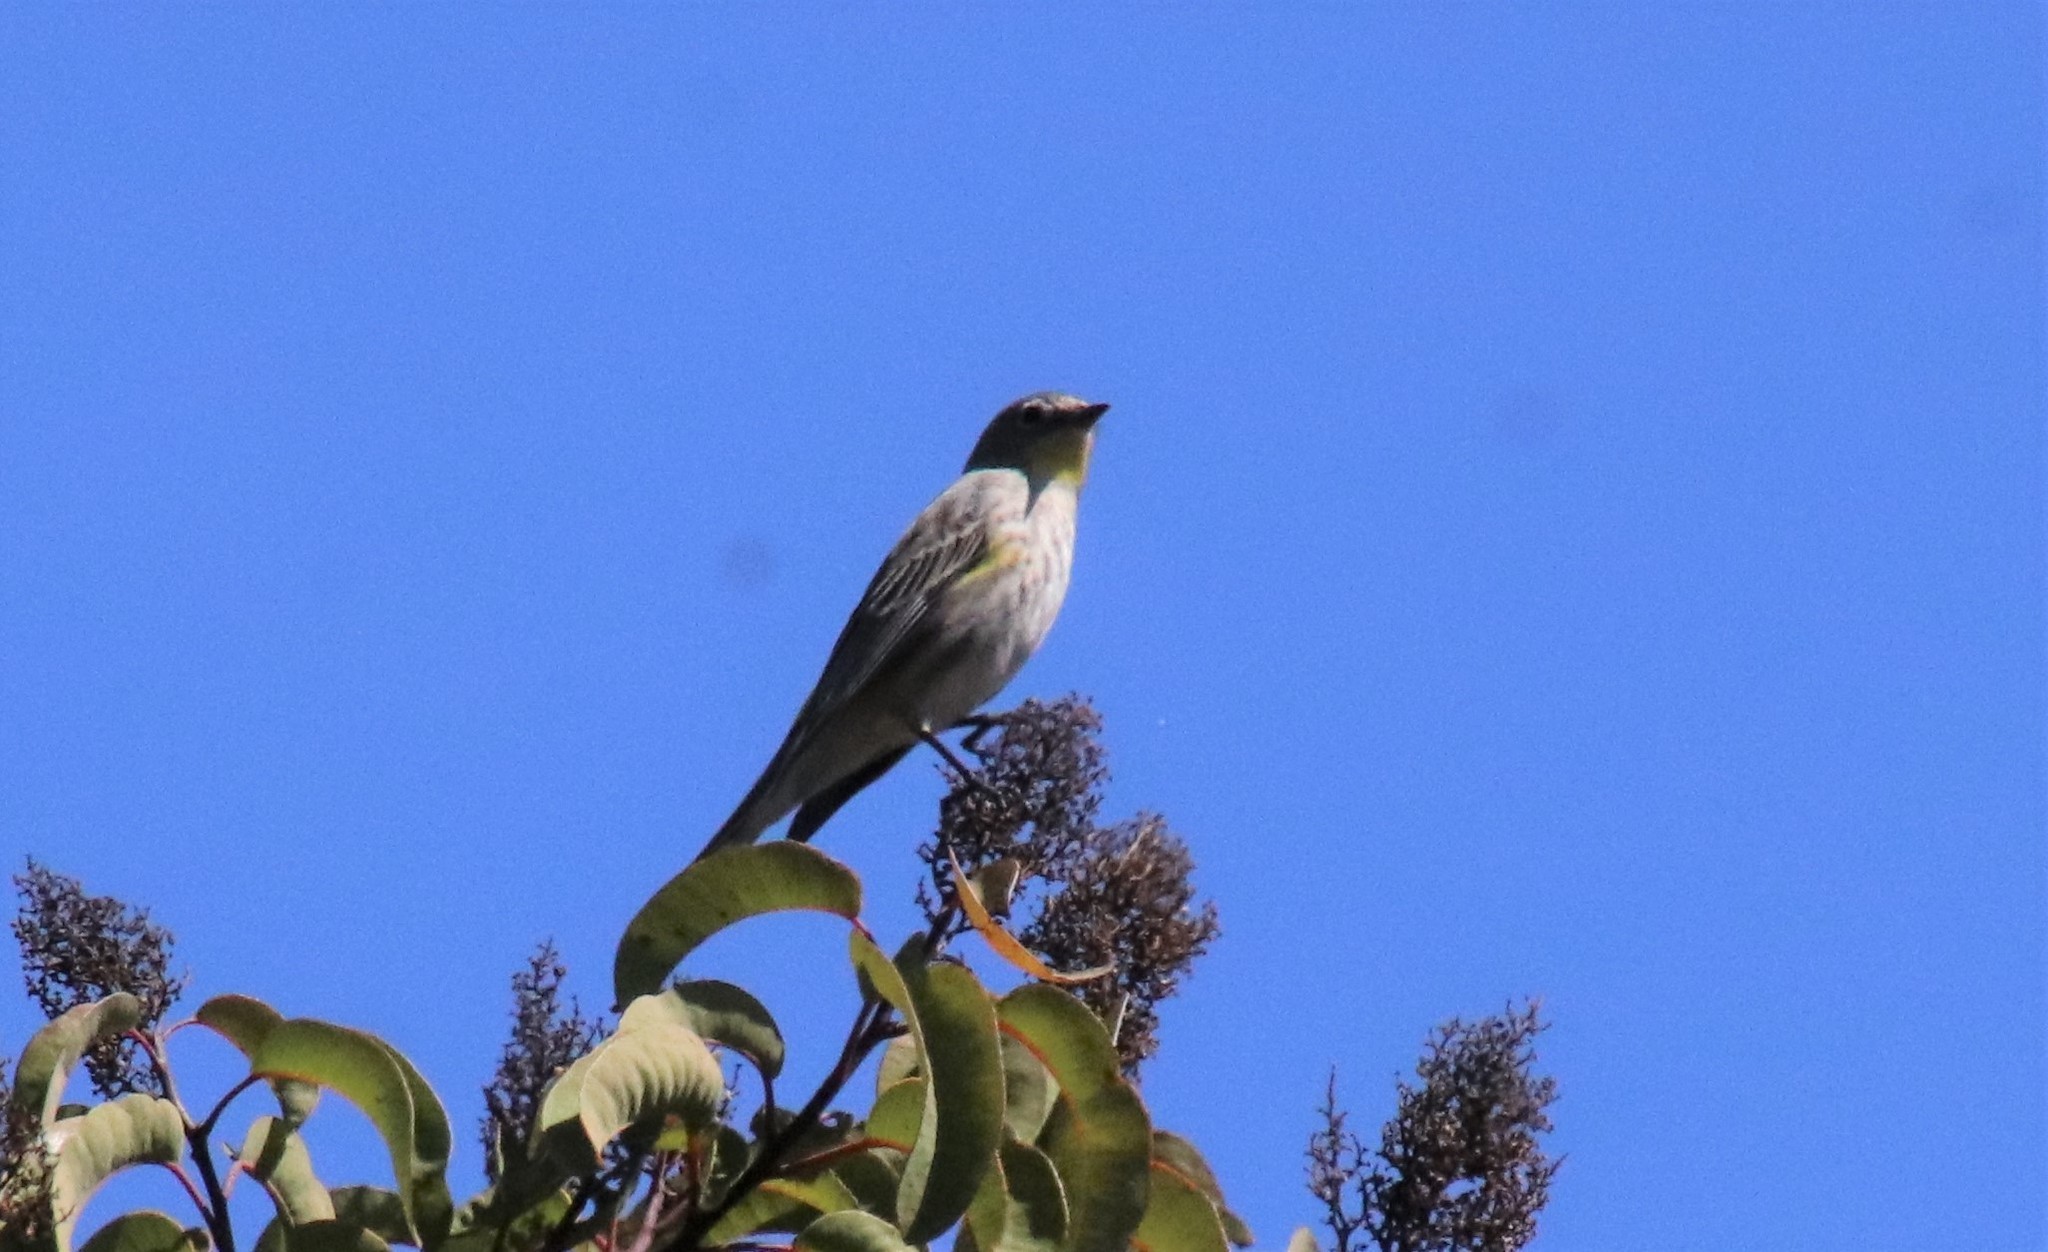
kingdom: Animalia
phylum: Chordata
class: Aves
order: Passeriformes
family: Parulidae
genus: Setophaga
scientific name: Setophaga auduboni
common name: Audubon's warbler
